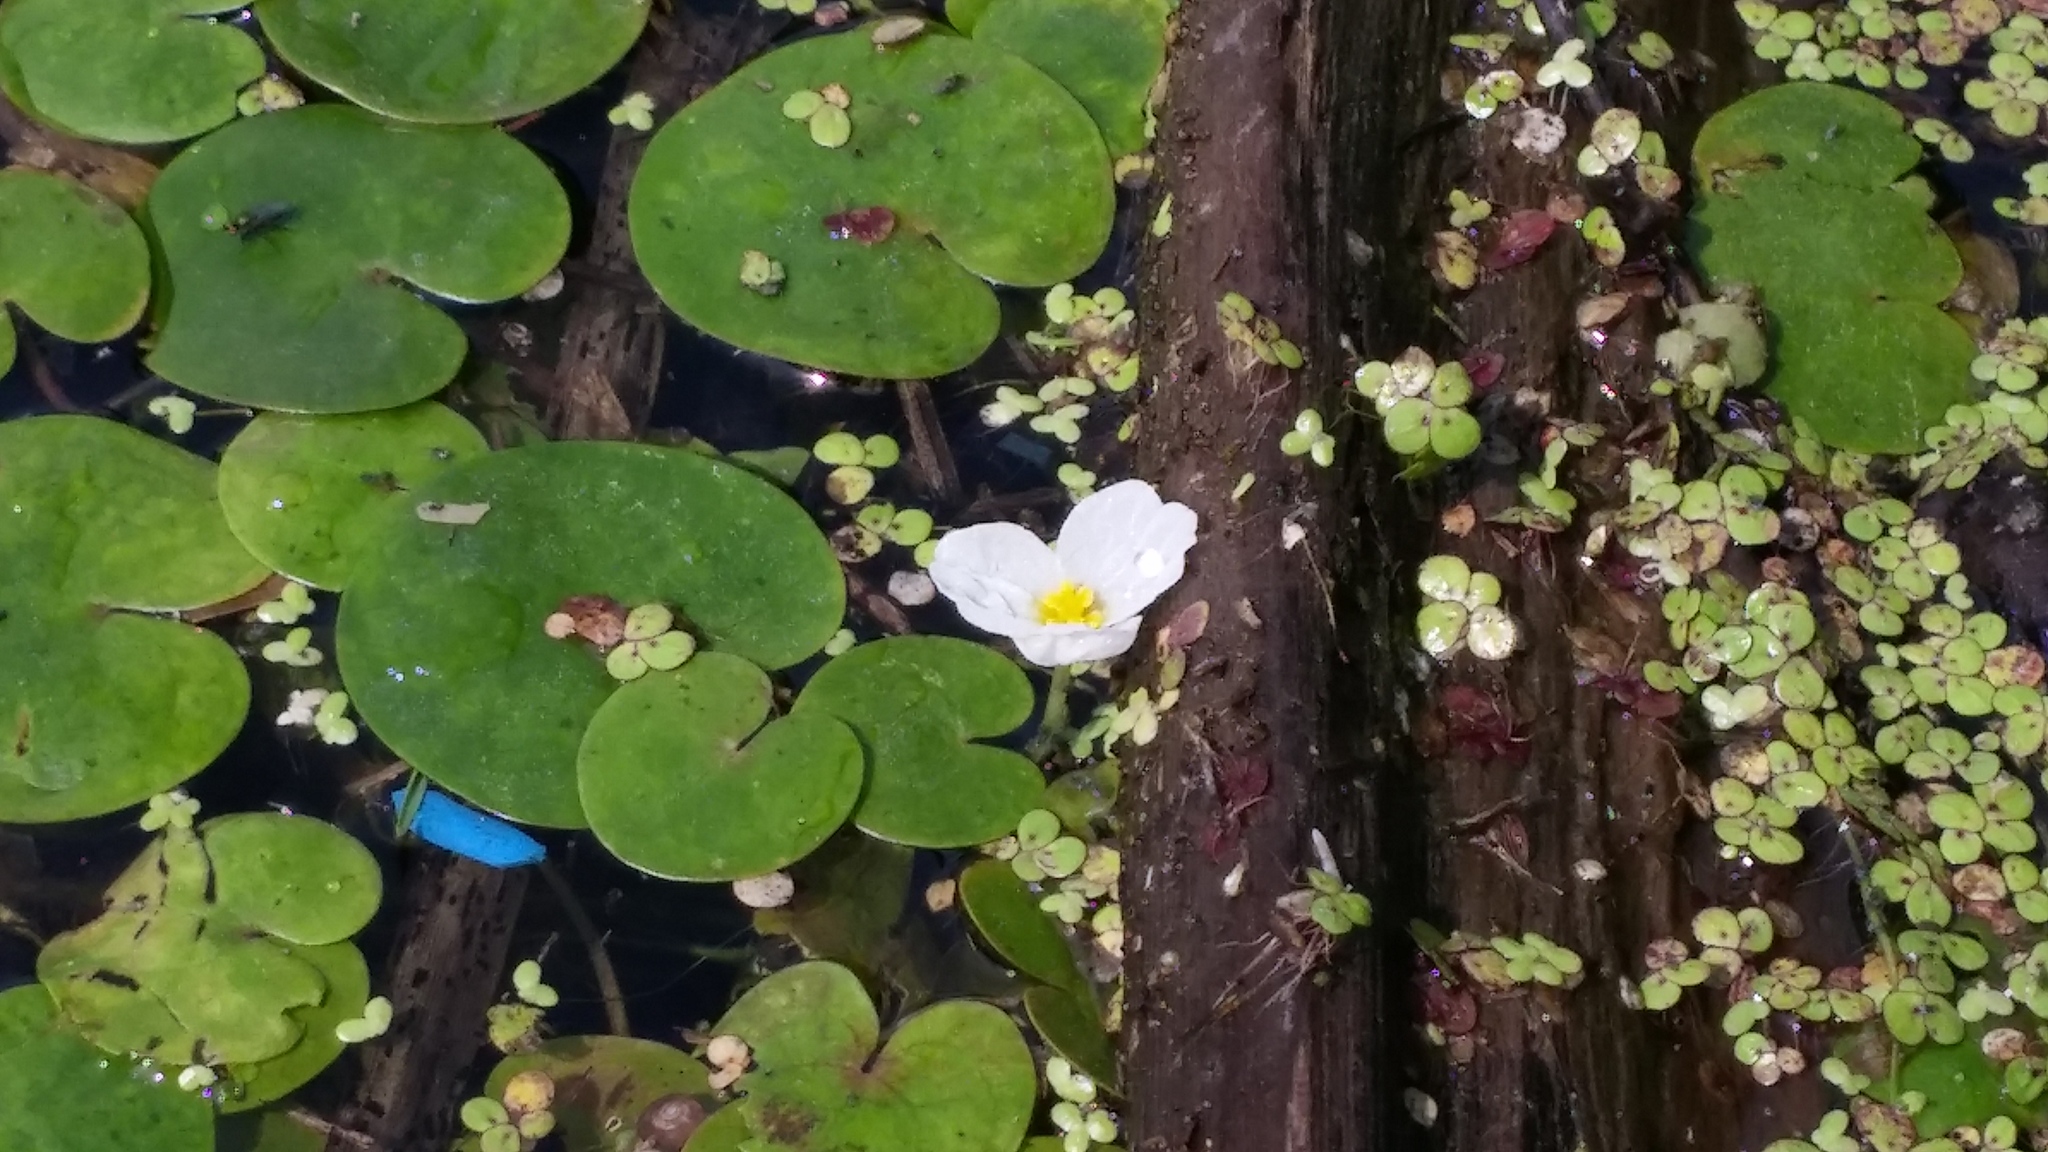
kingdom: Plantae
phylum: Tracheophyta
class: Liliopsida
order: Alismatales
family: Hydrocharitaceae
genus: Hydrocharis
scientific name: Hydrocharis morsus-ranae
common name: Frogbit
